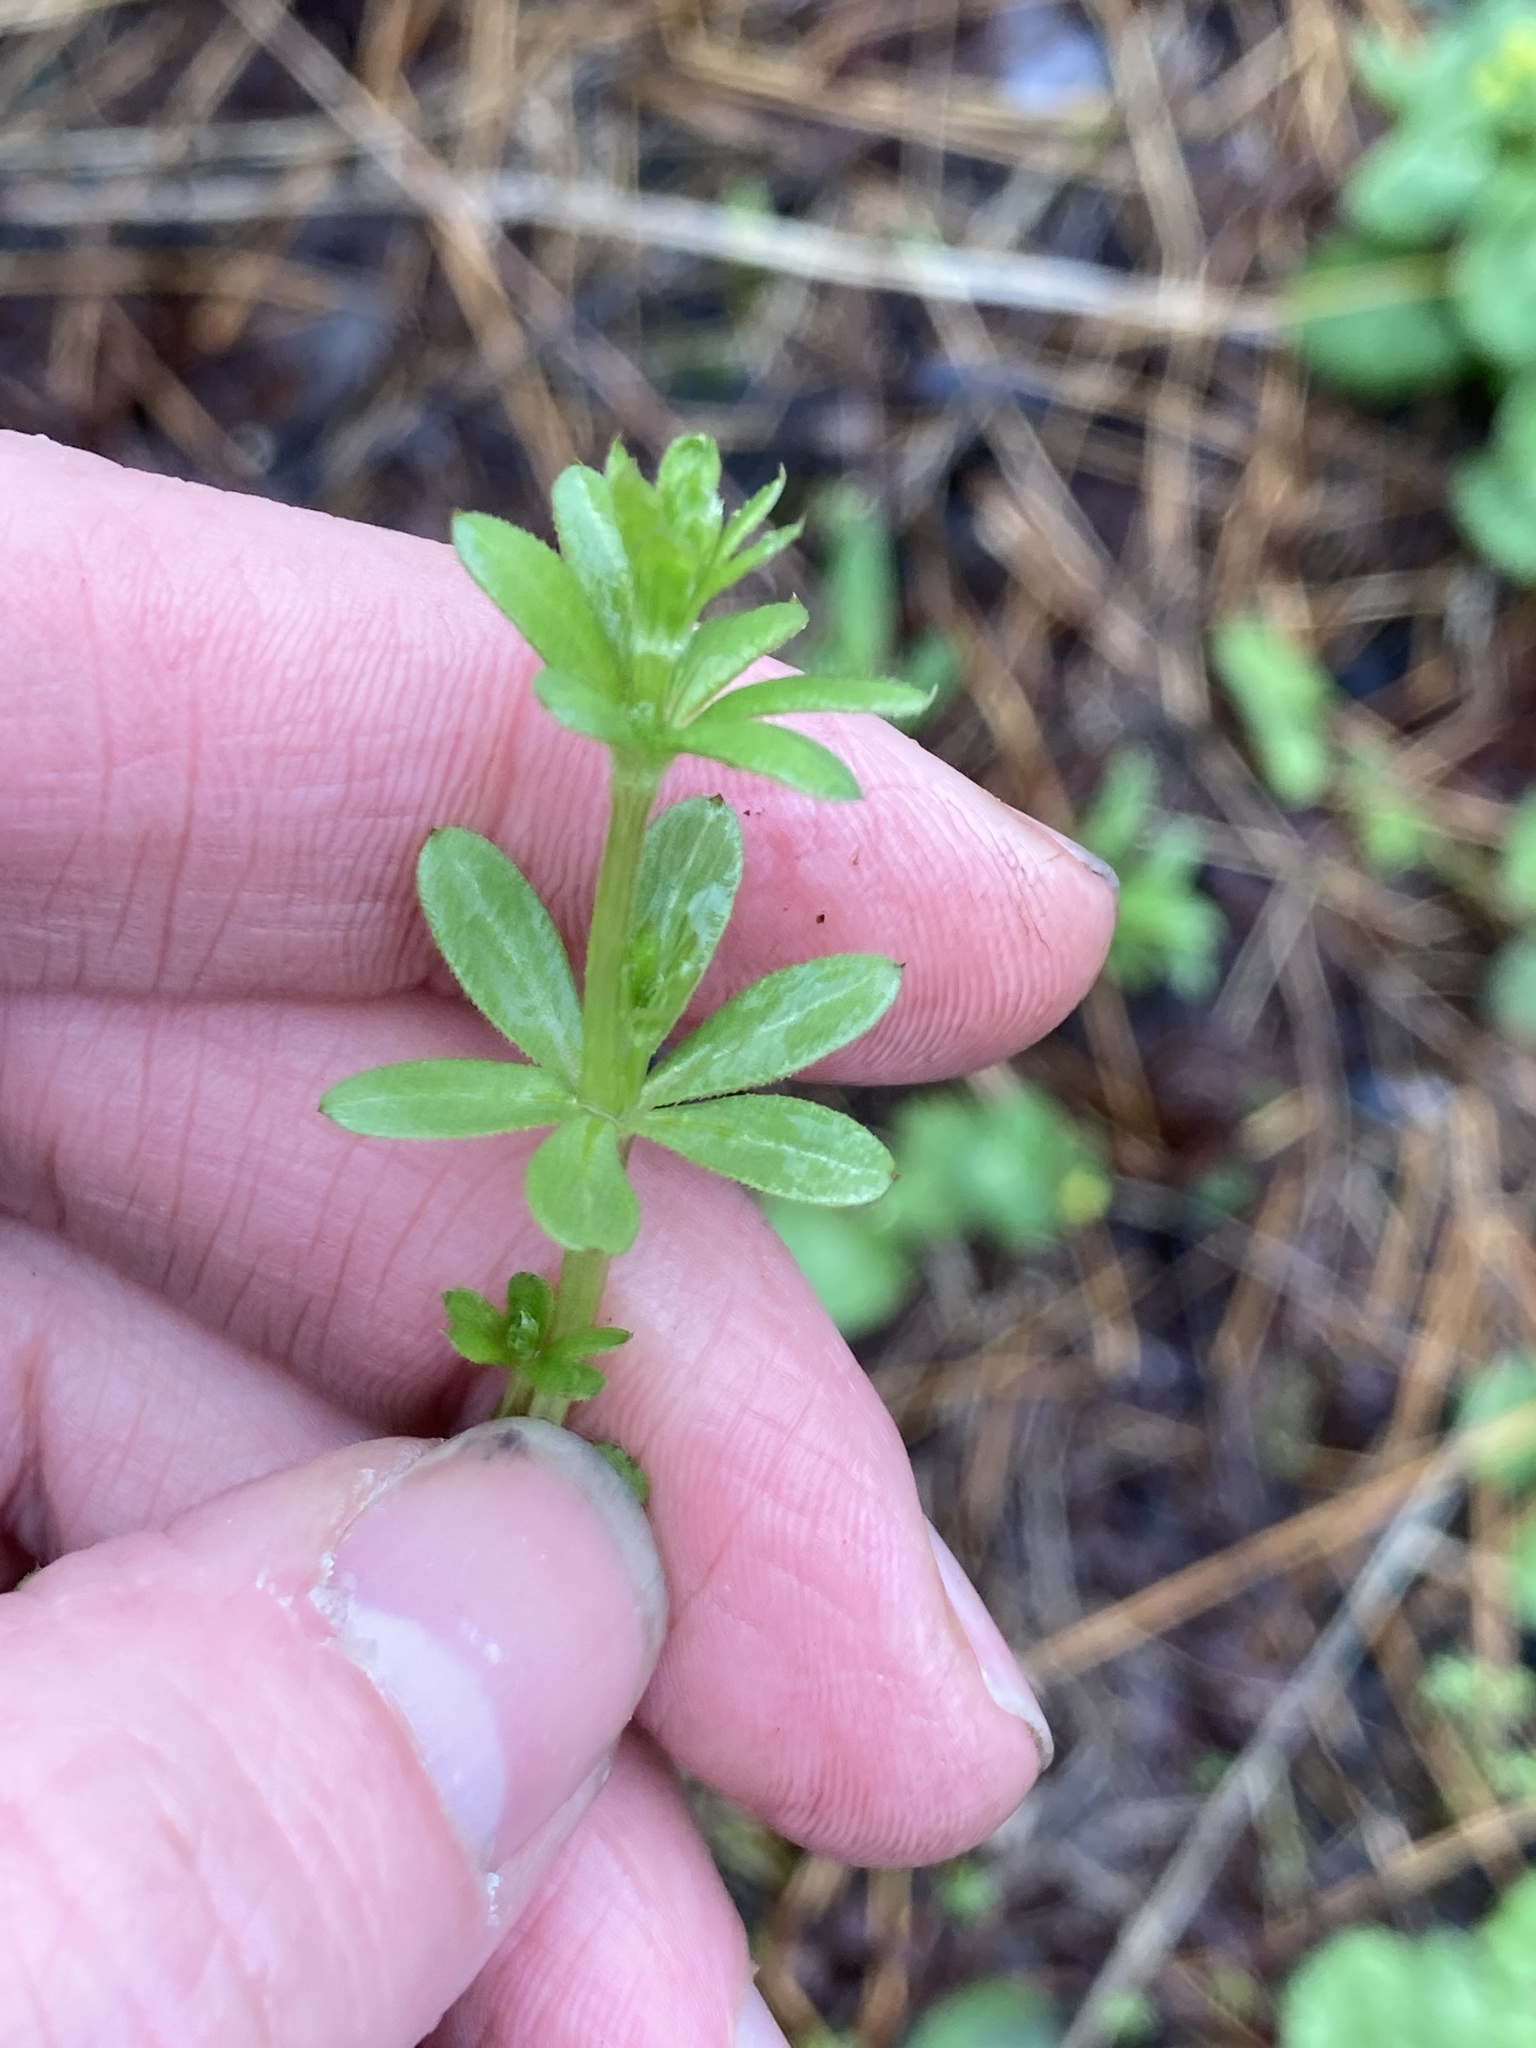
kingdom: Plantae
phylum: Tracheophyta
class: Magnoliopsida
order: Gentianales
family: Rubiaceae
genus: Galium
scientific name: Galium asprellum
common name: Rough bedstraw
